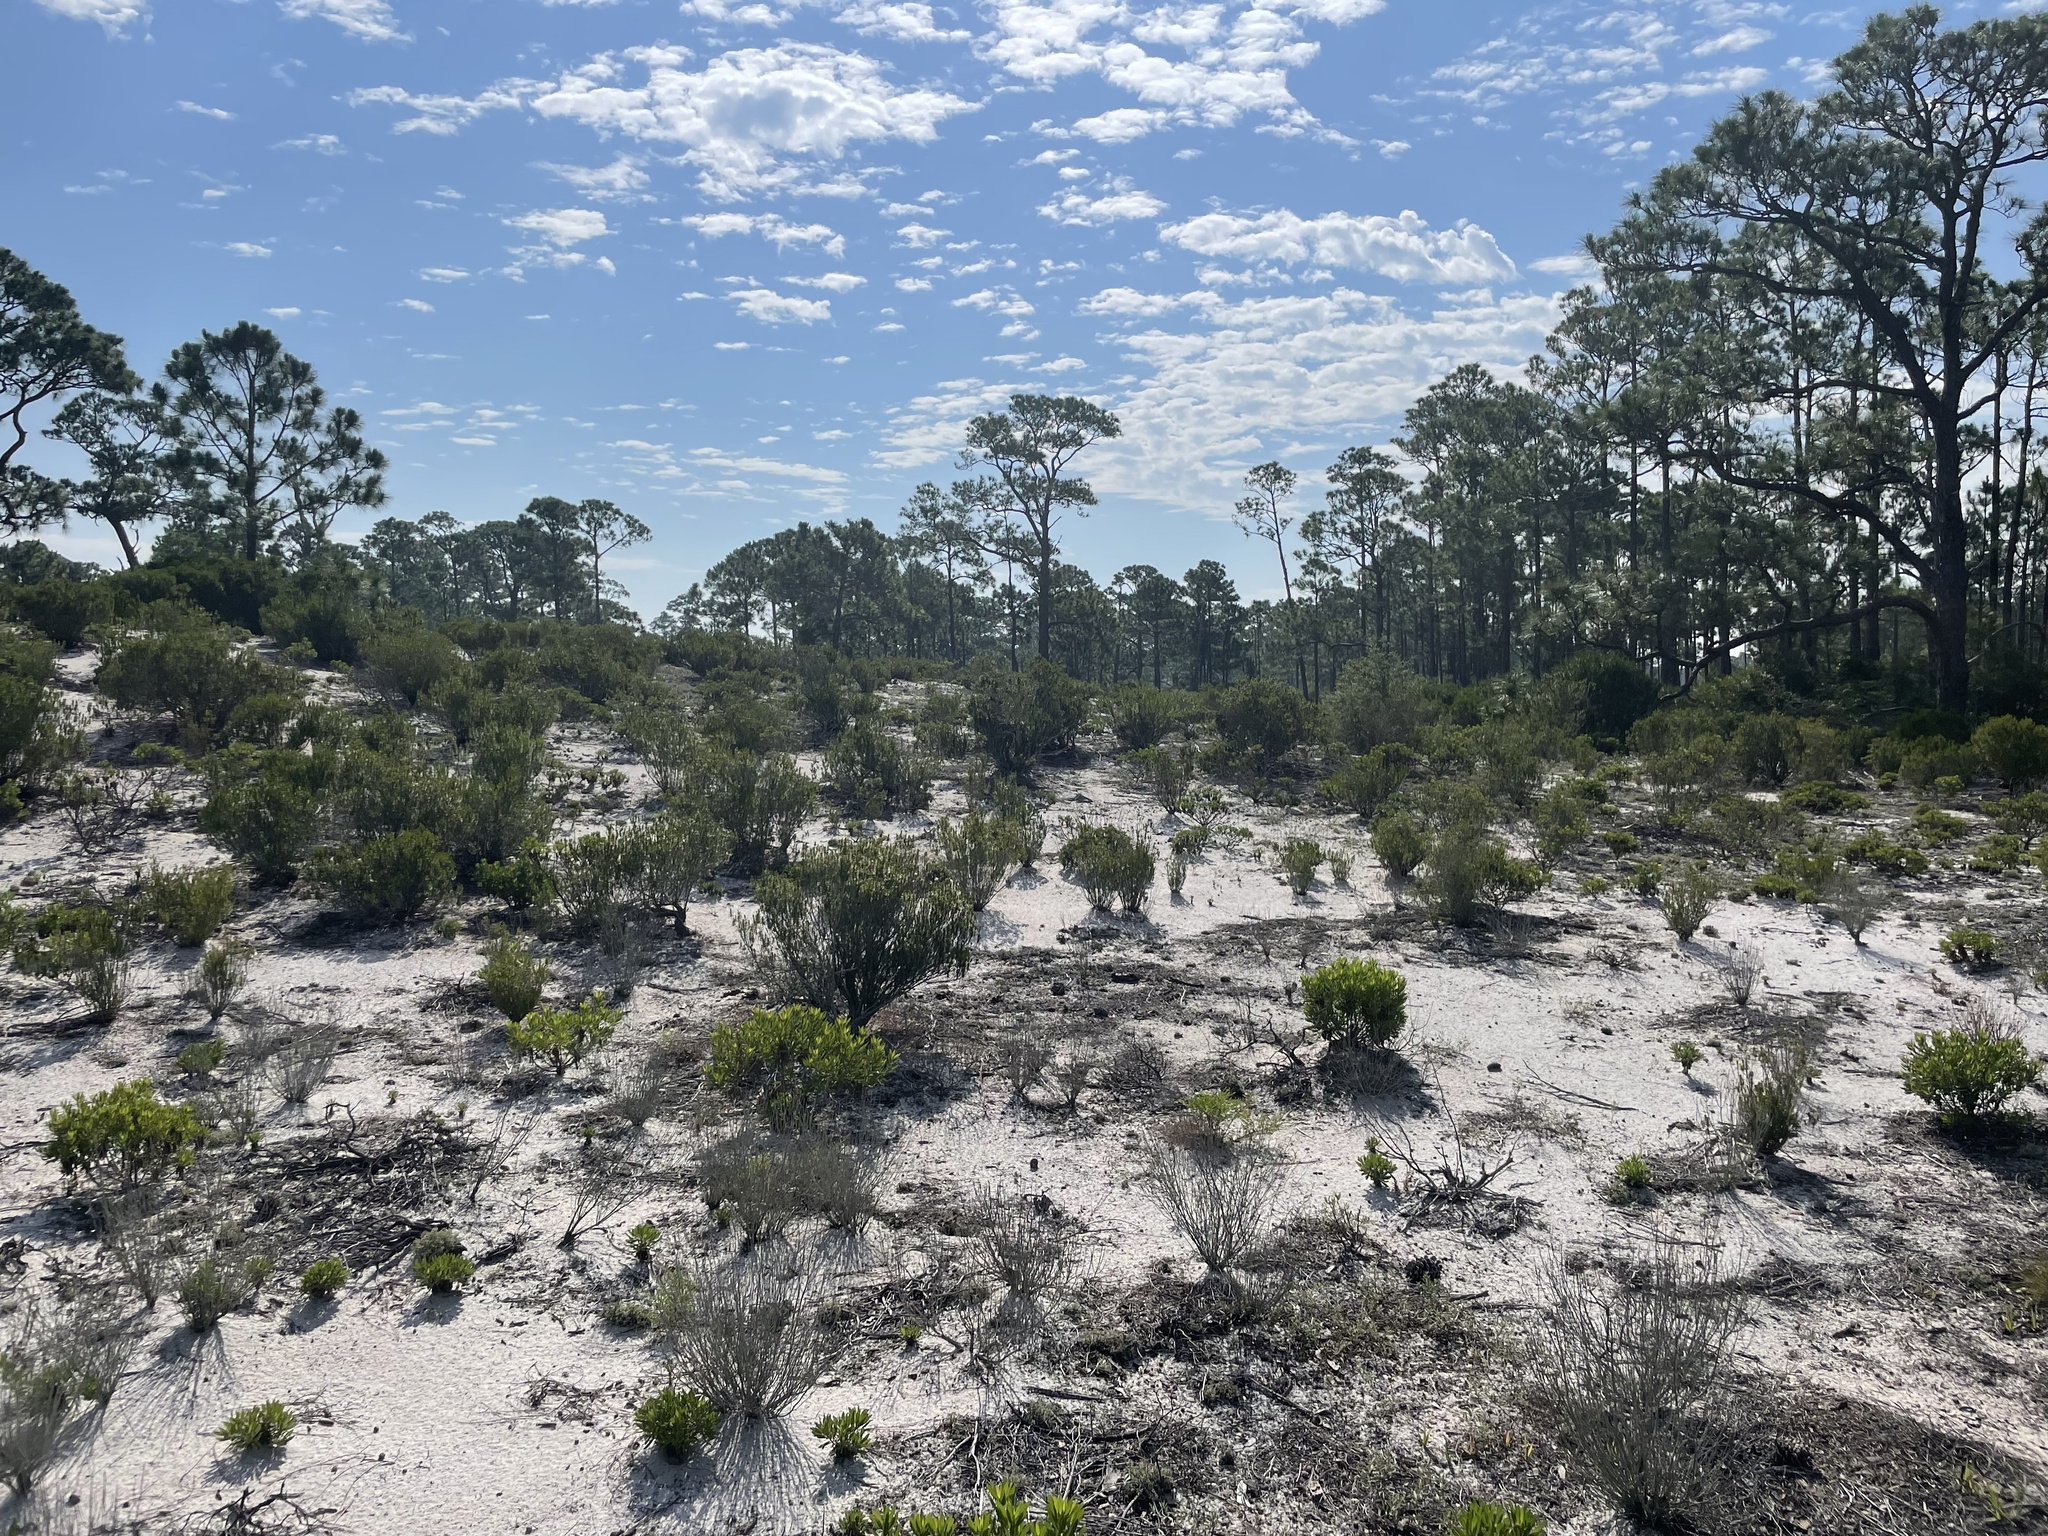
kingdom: Plantae
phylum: Tracheophyta
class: Magnoliopsida
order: Ericales
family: Ericaceae
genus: Ceratiola
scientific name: Ceratiola ericoides
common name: Sandhill-rosemary
